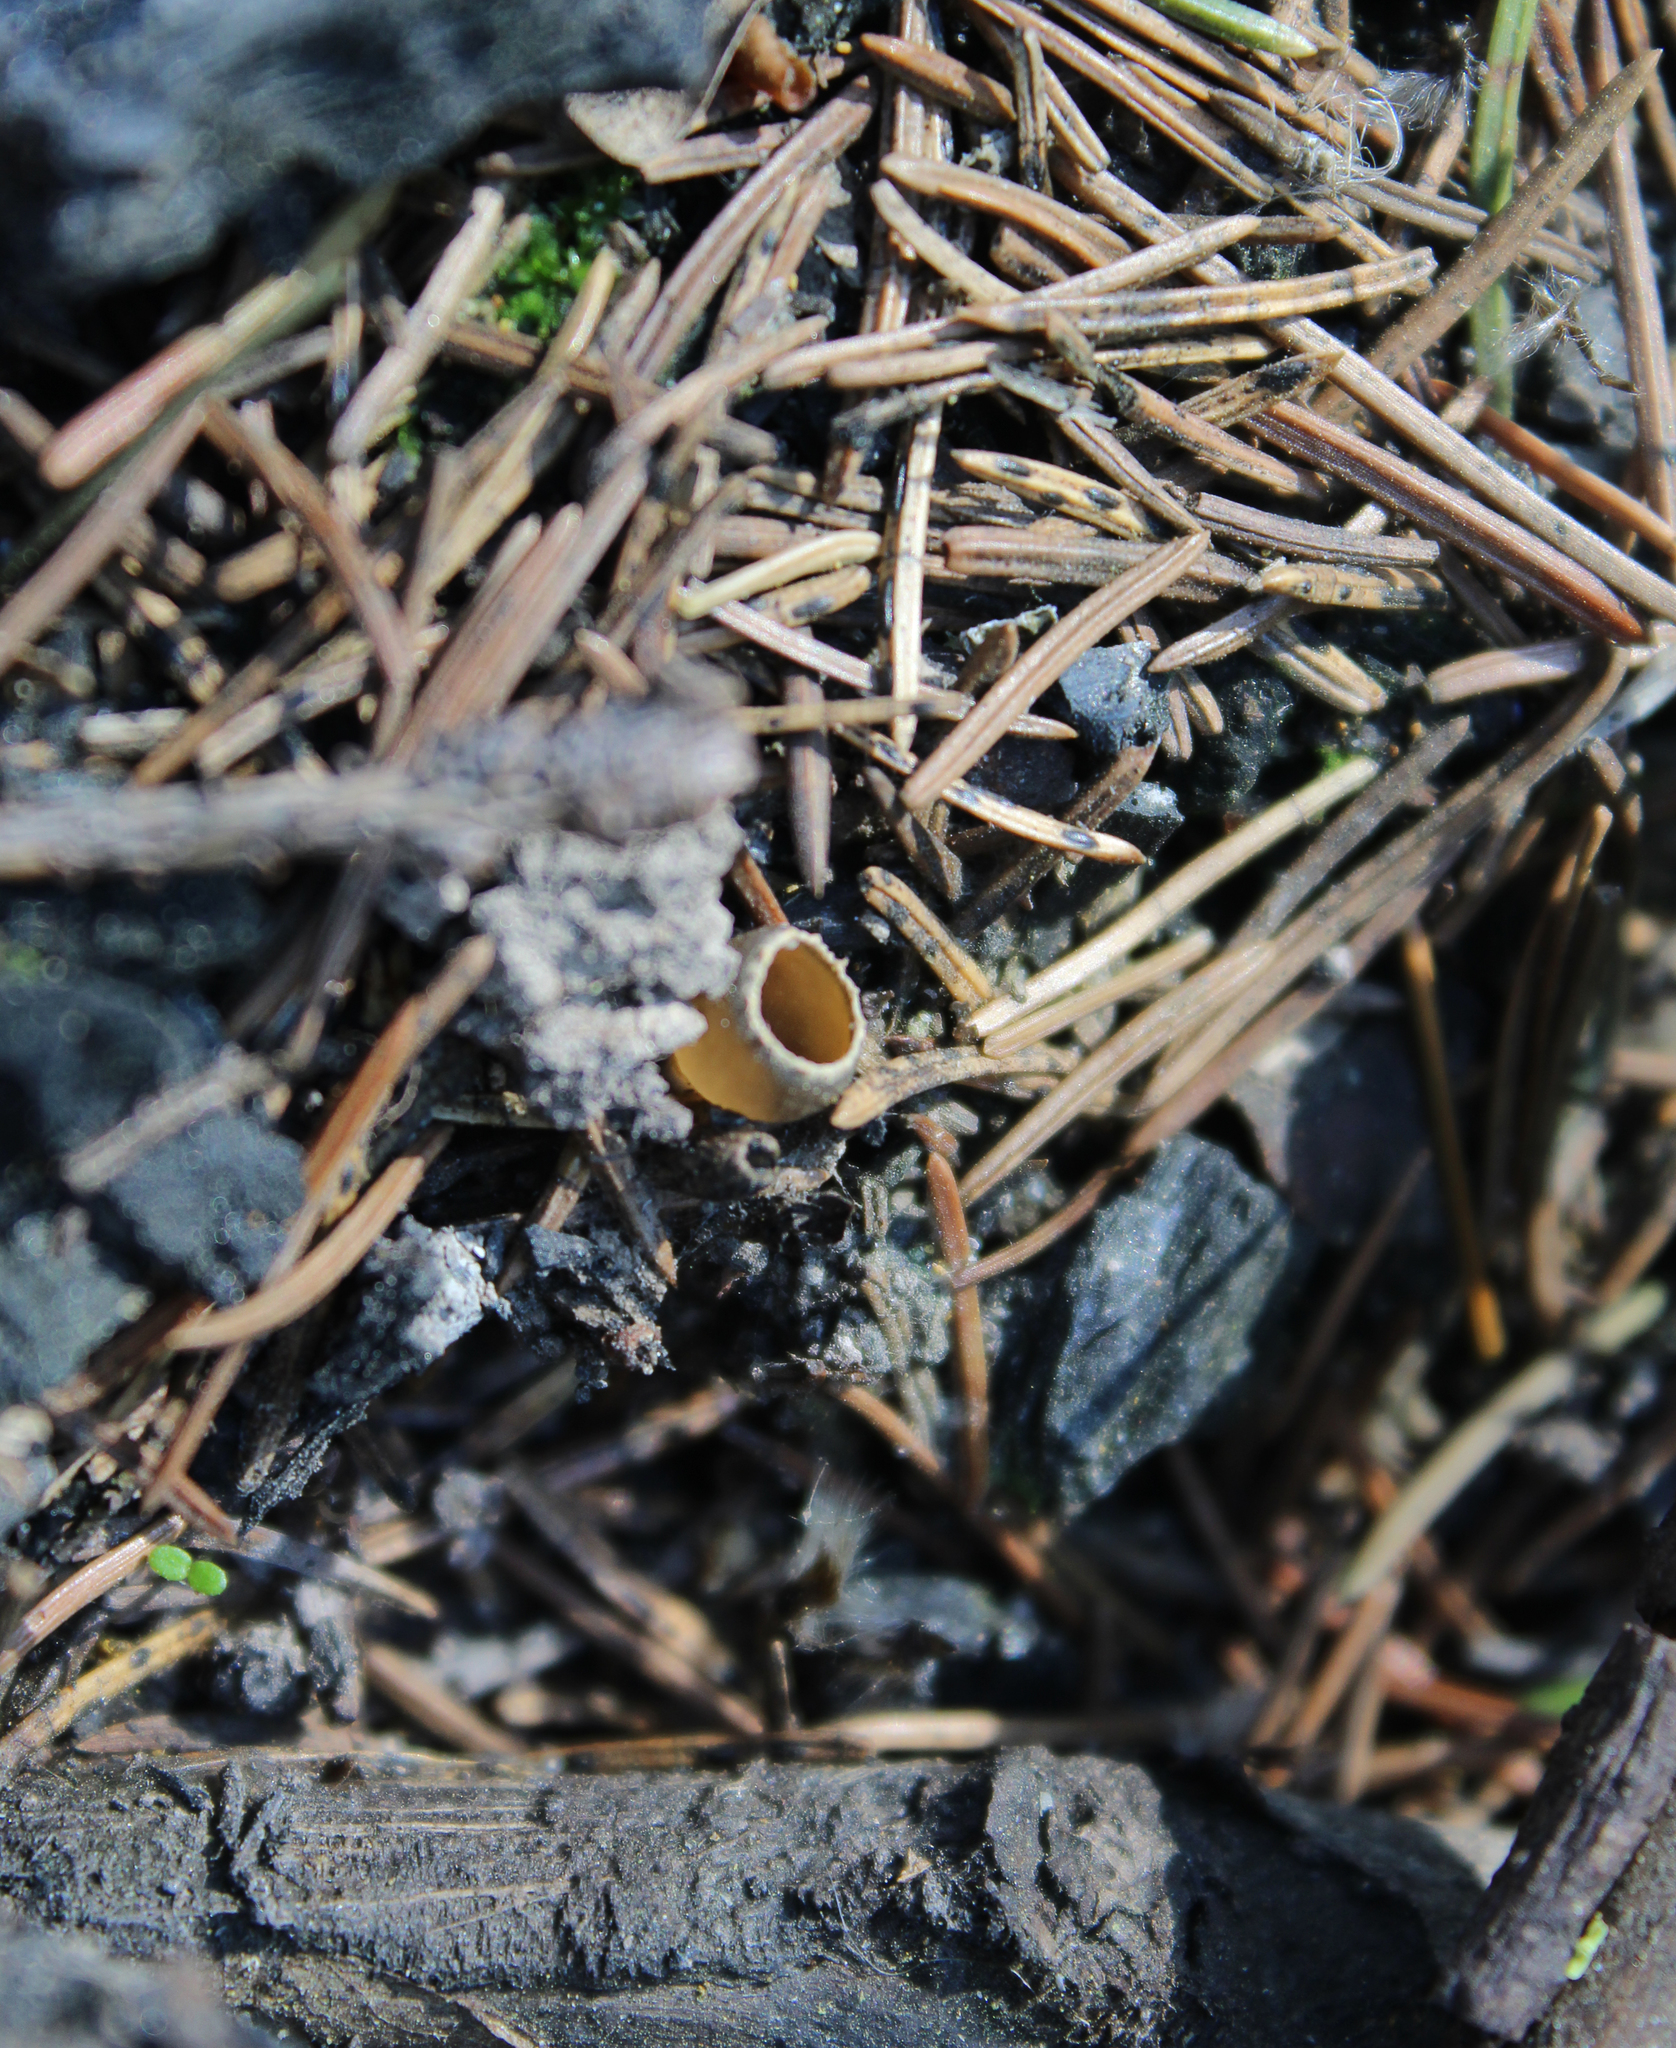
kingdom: Fungi
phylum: Ascomycota
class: Pezizomycetes
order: Pezizales
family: Pyronemataceae
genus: Geopyxis
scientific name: Geopyxis carbonaria
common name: Stalked bonfire cup
